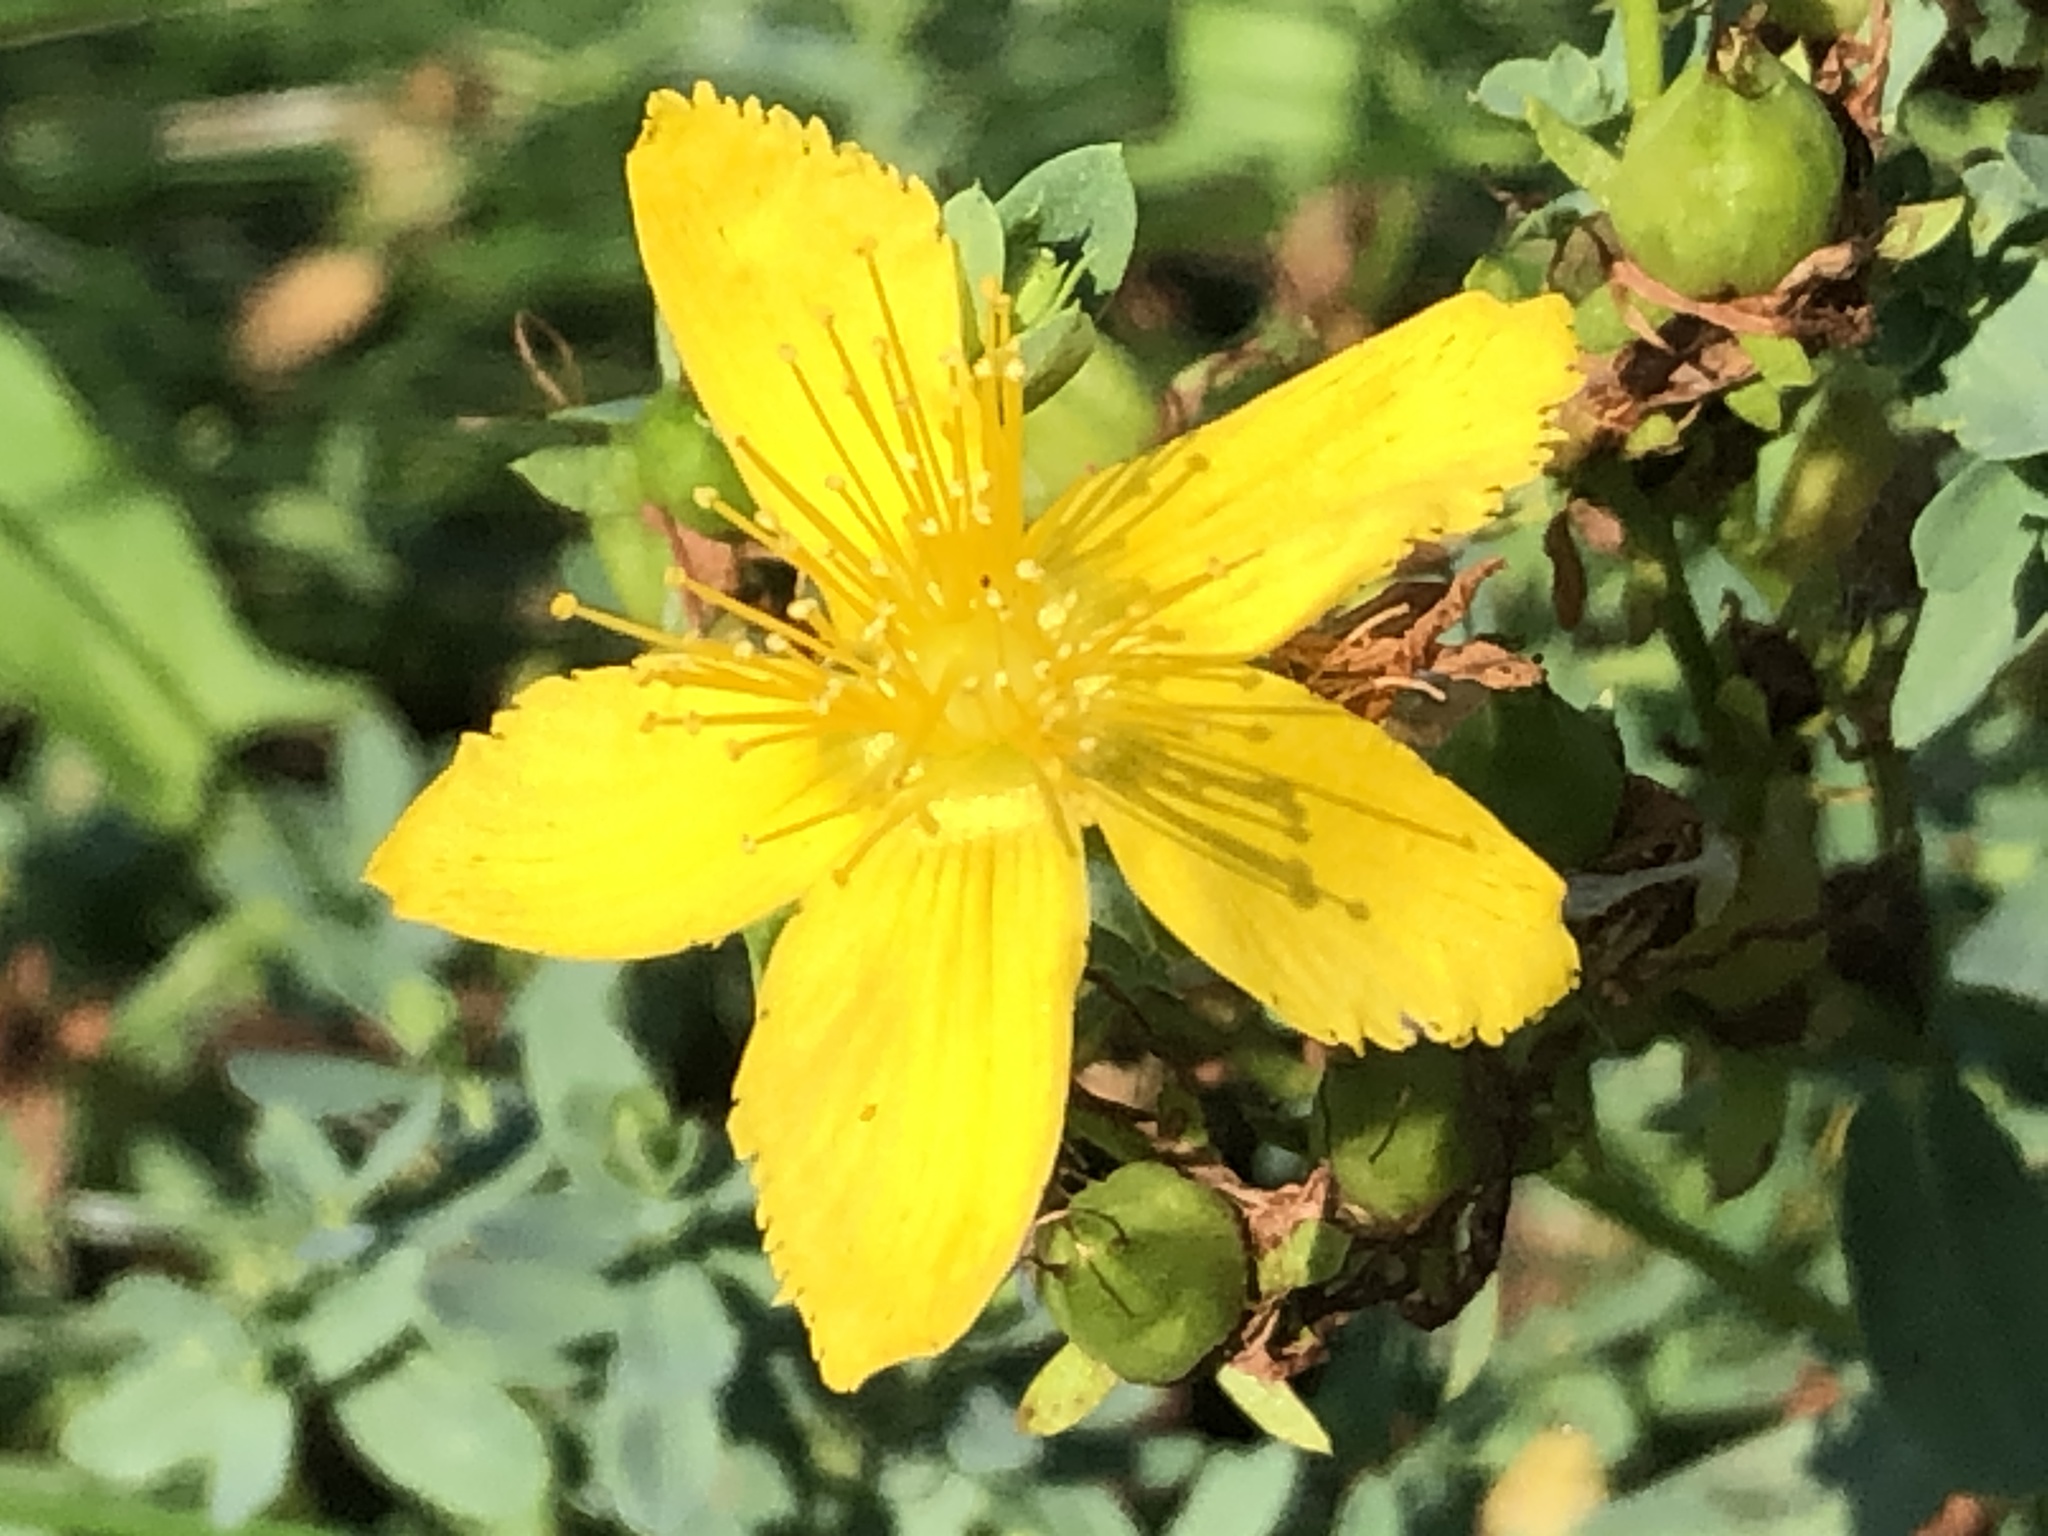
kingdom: Plantae
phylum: Tracheophyta
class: Magnoliopsida
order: Malpighiales
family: Hypericaceae
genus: Hypericum
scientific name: Hypericum perforatum
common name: Common st. johnswort
